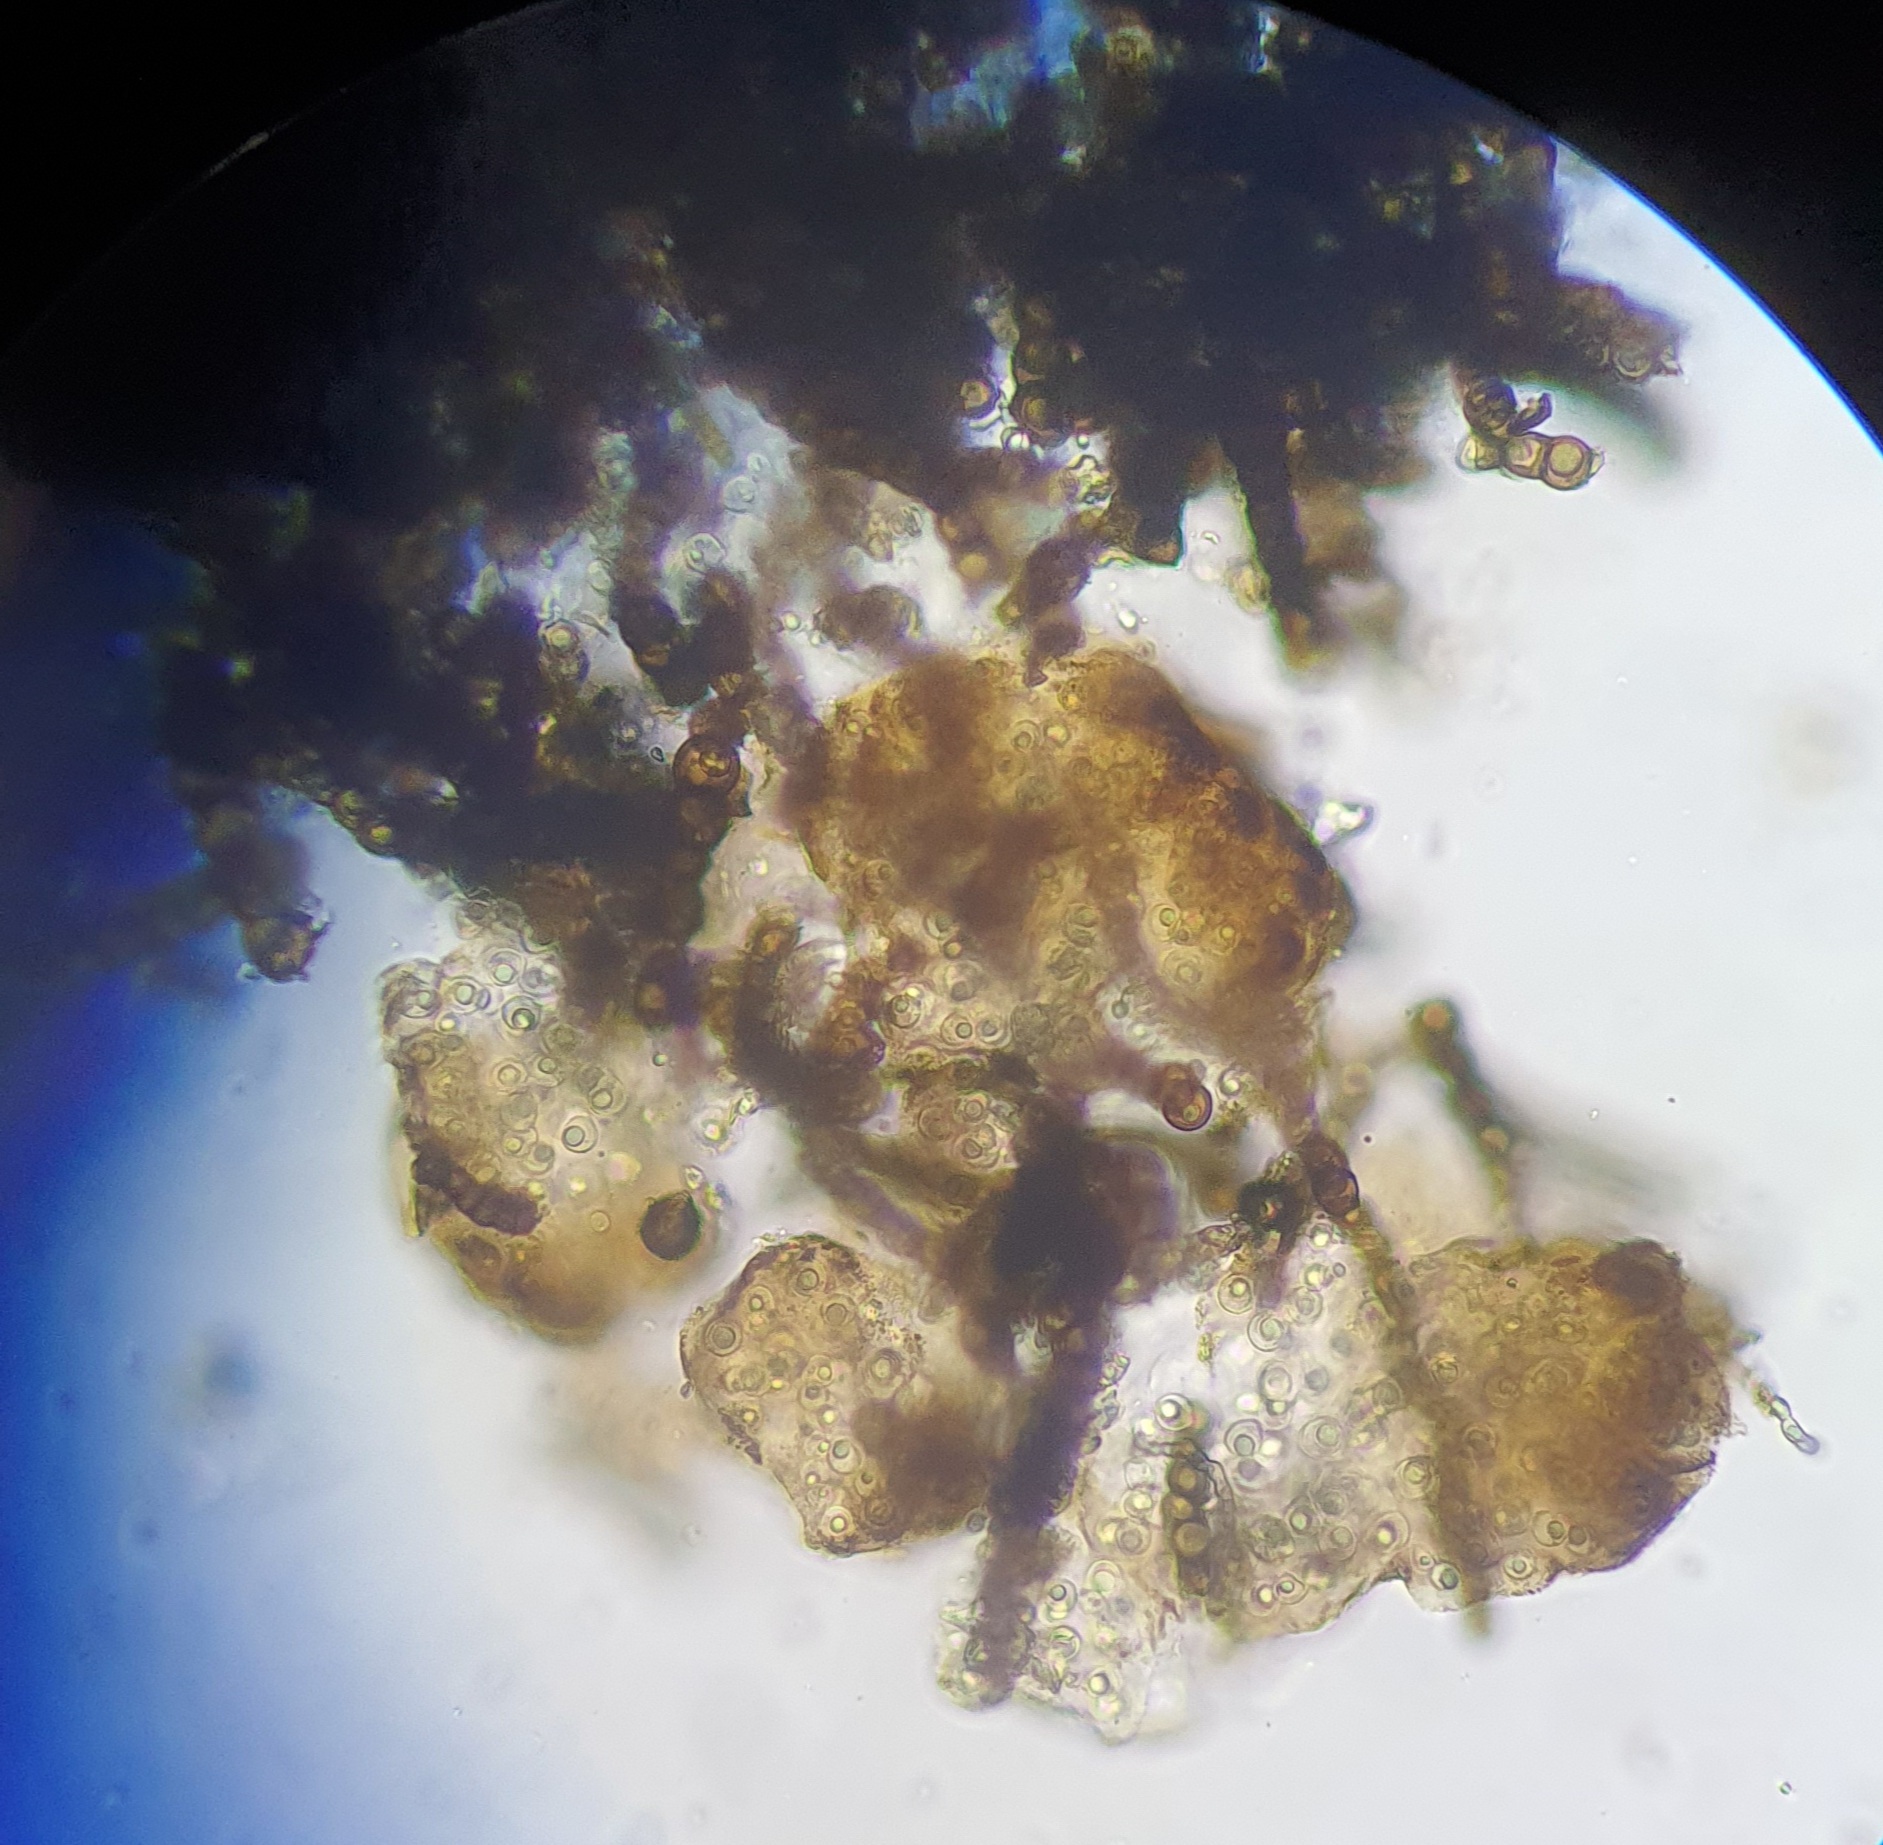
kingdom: Fungi
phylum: Ascomycota
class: Dothideomycetes
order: Capnodiales
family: Capnodiaceae
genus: Capnodium
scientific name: Capnodium walteri
